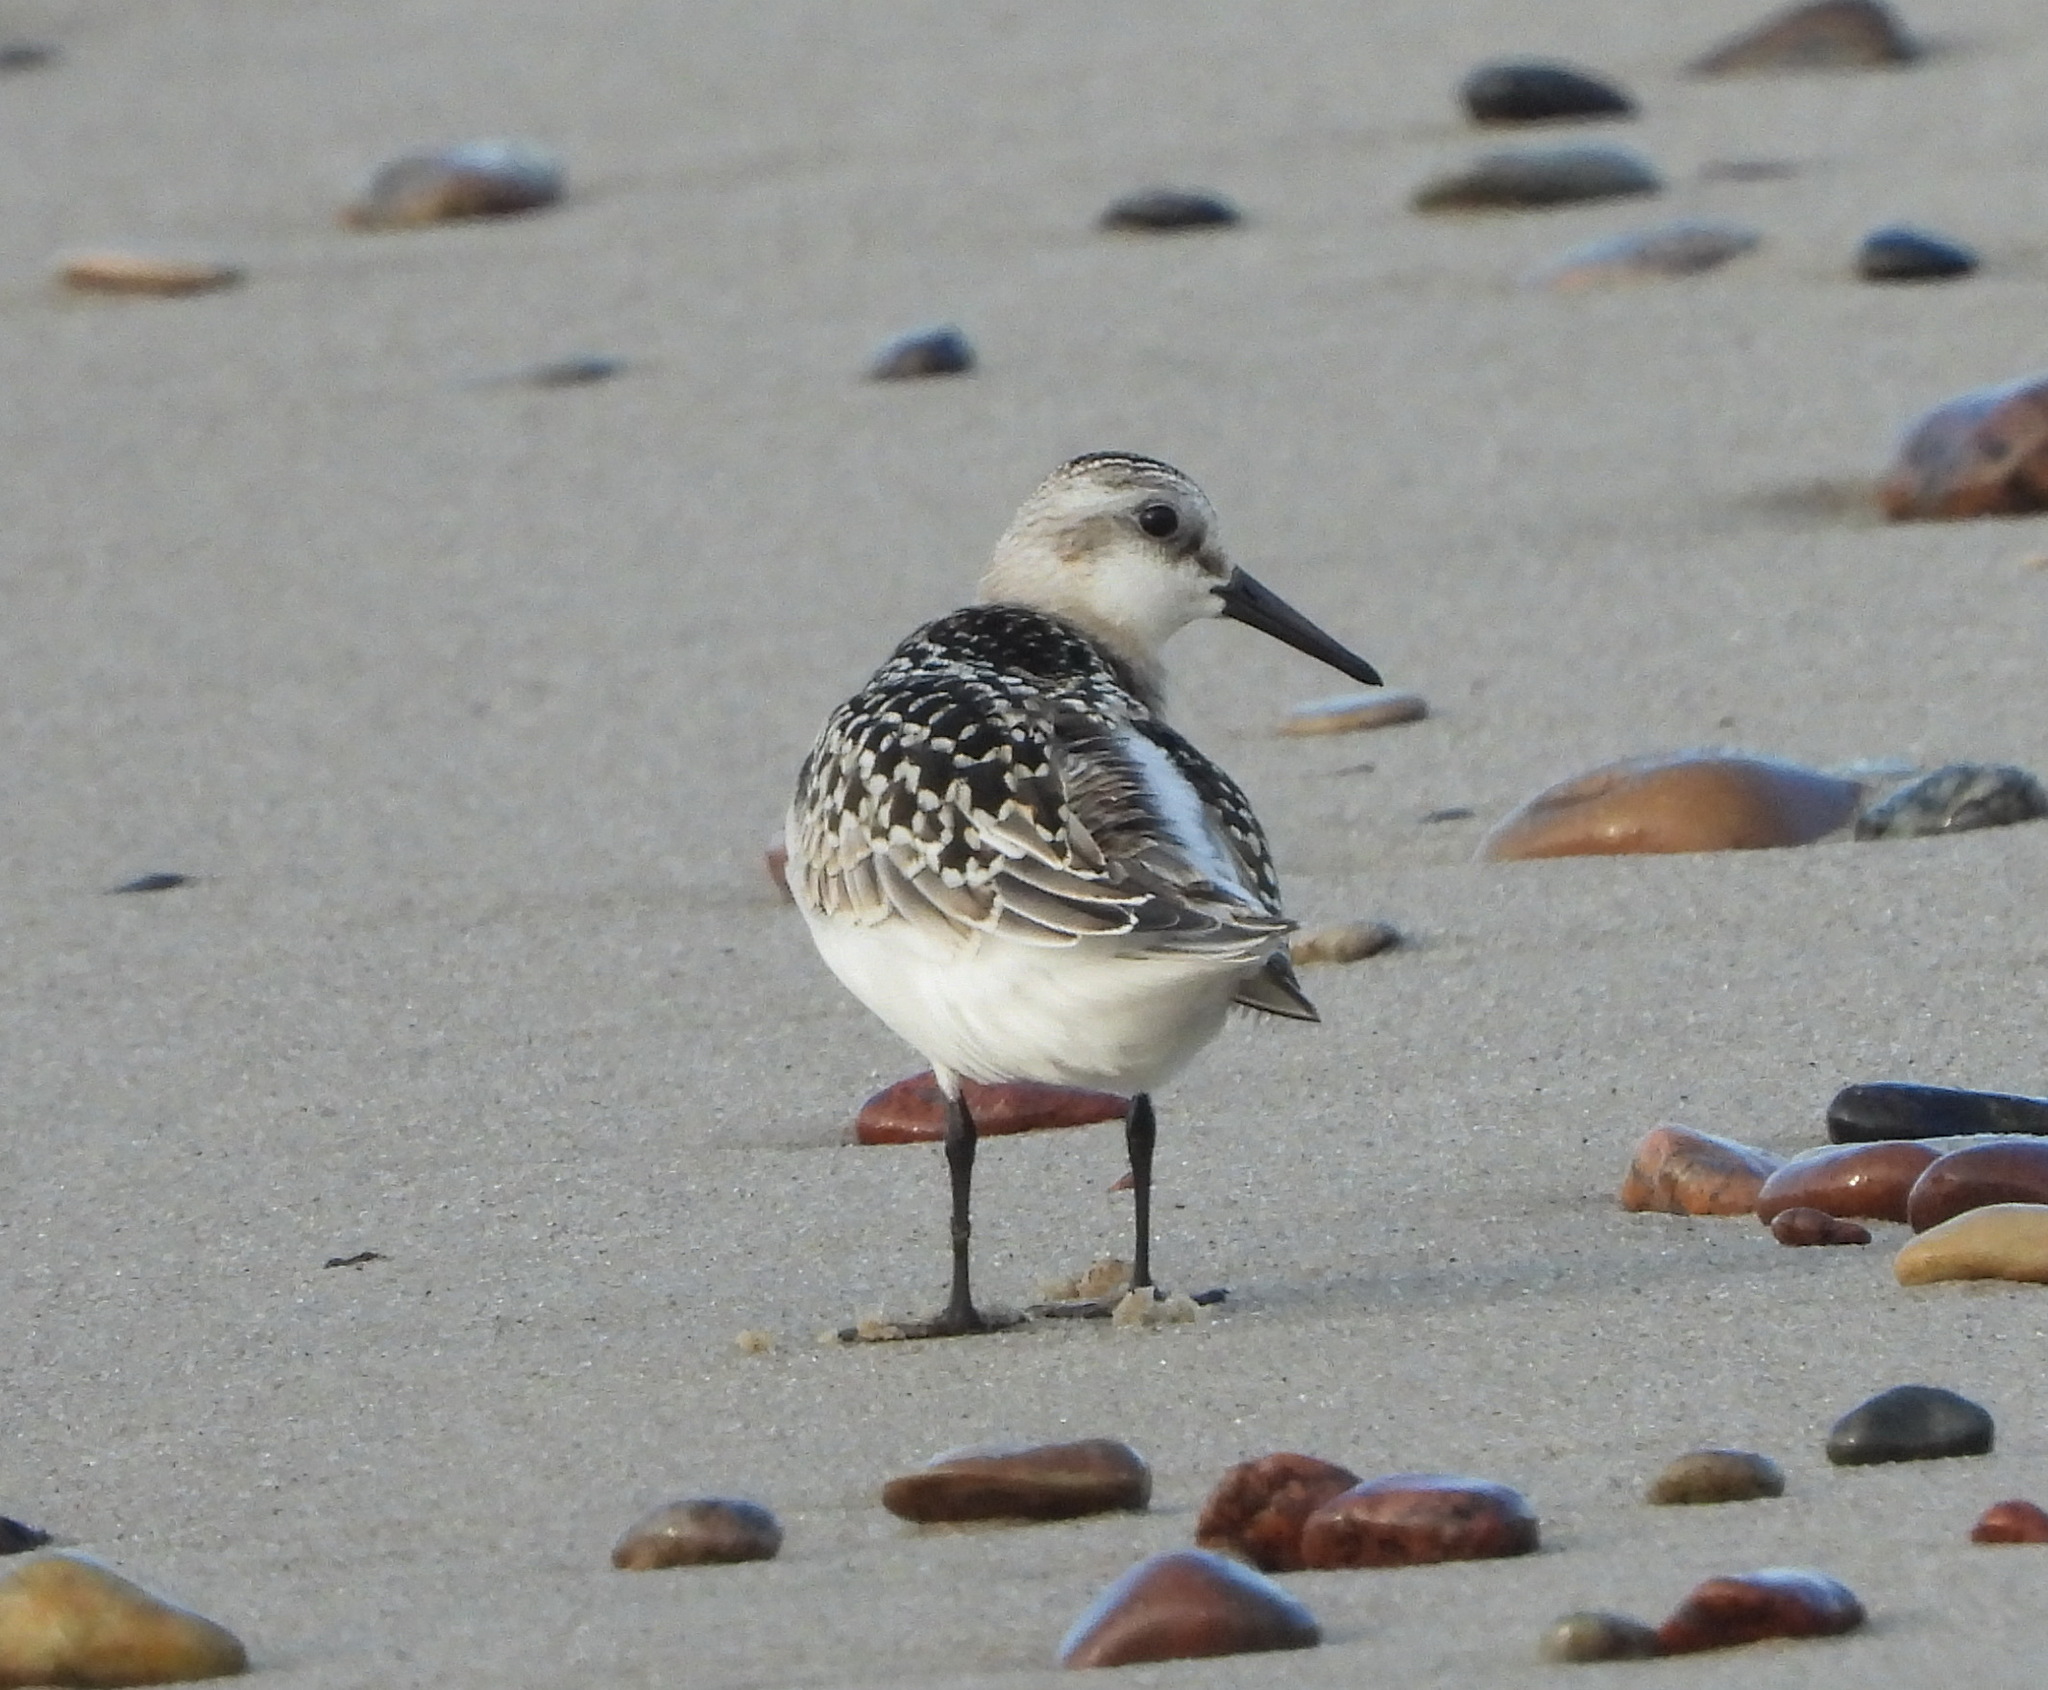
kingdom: Animalia
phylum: Chordata
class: Aves
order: Charadriiformes
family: Scolopacidae
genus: Calidris
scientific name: Calidris alba
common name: Sanderling
